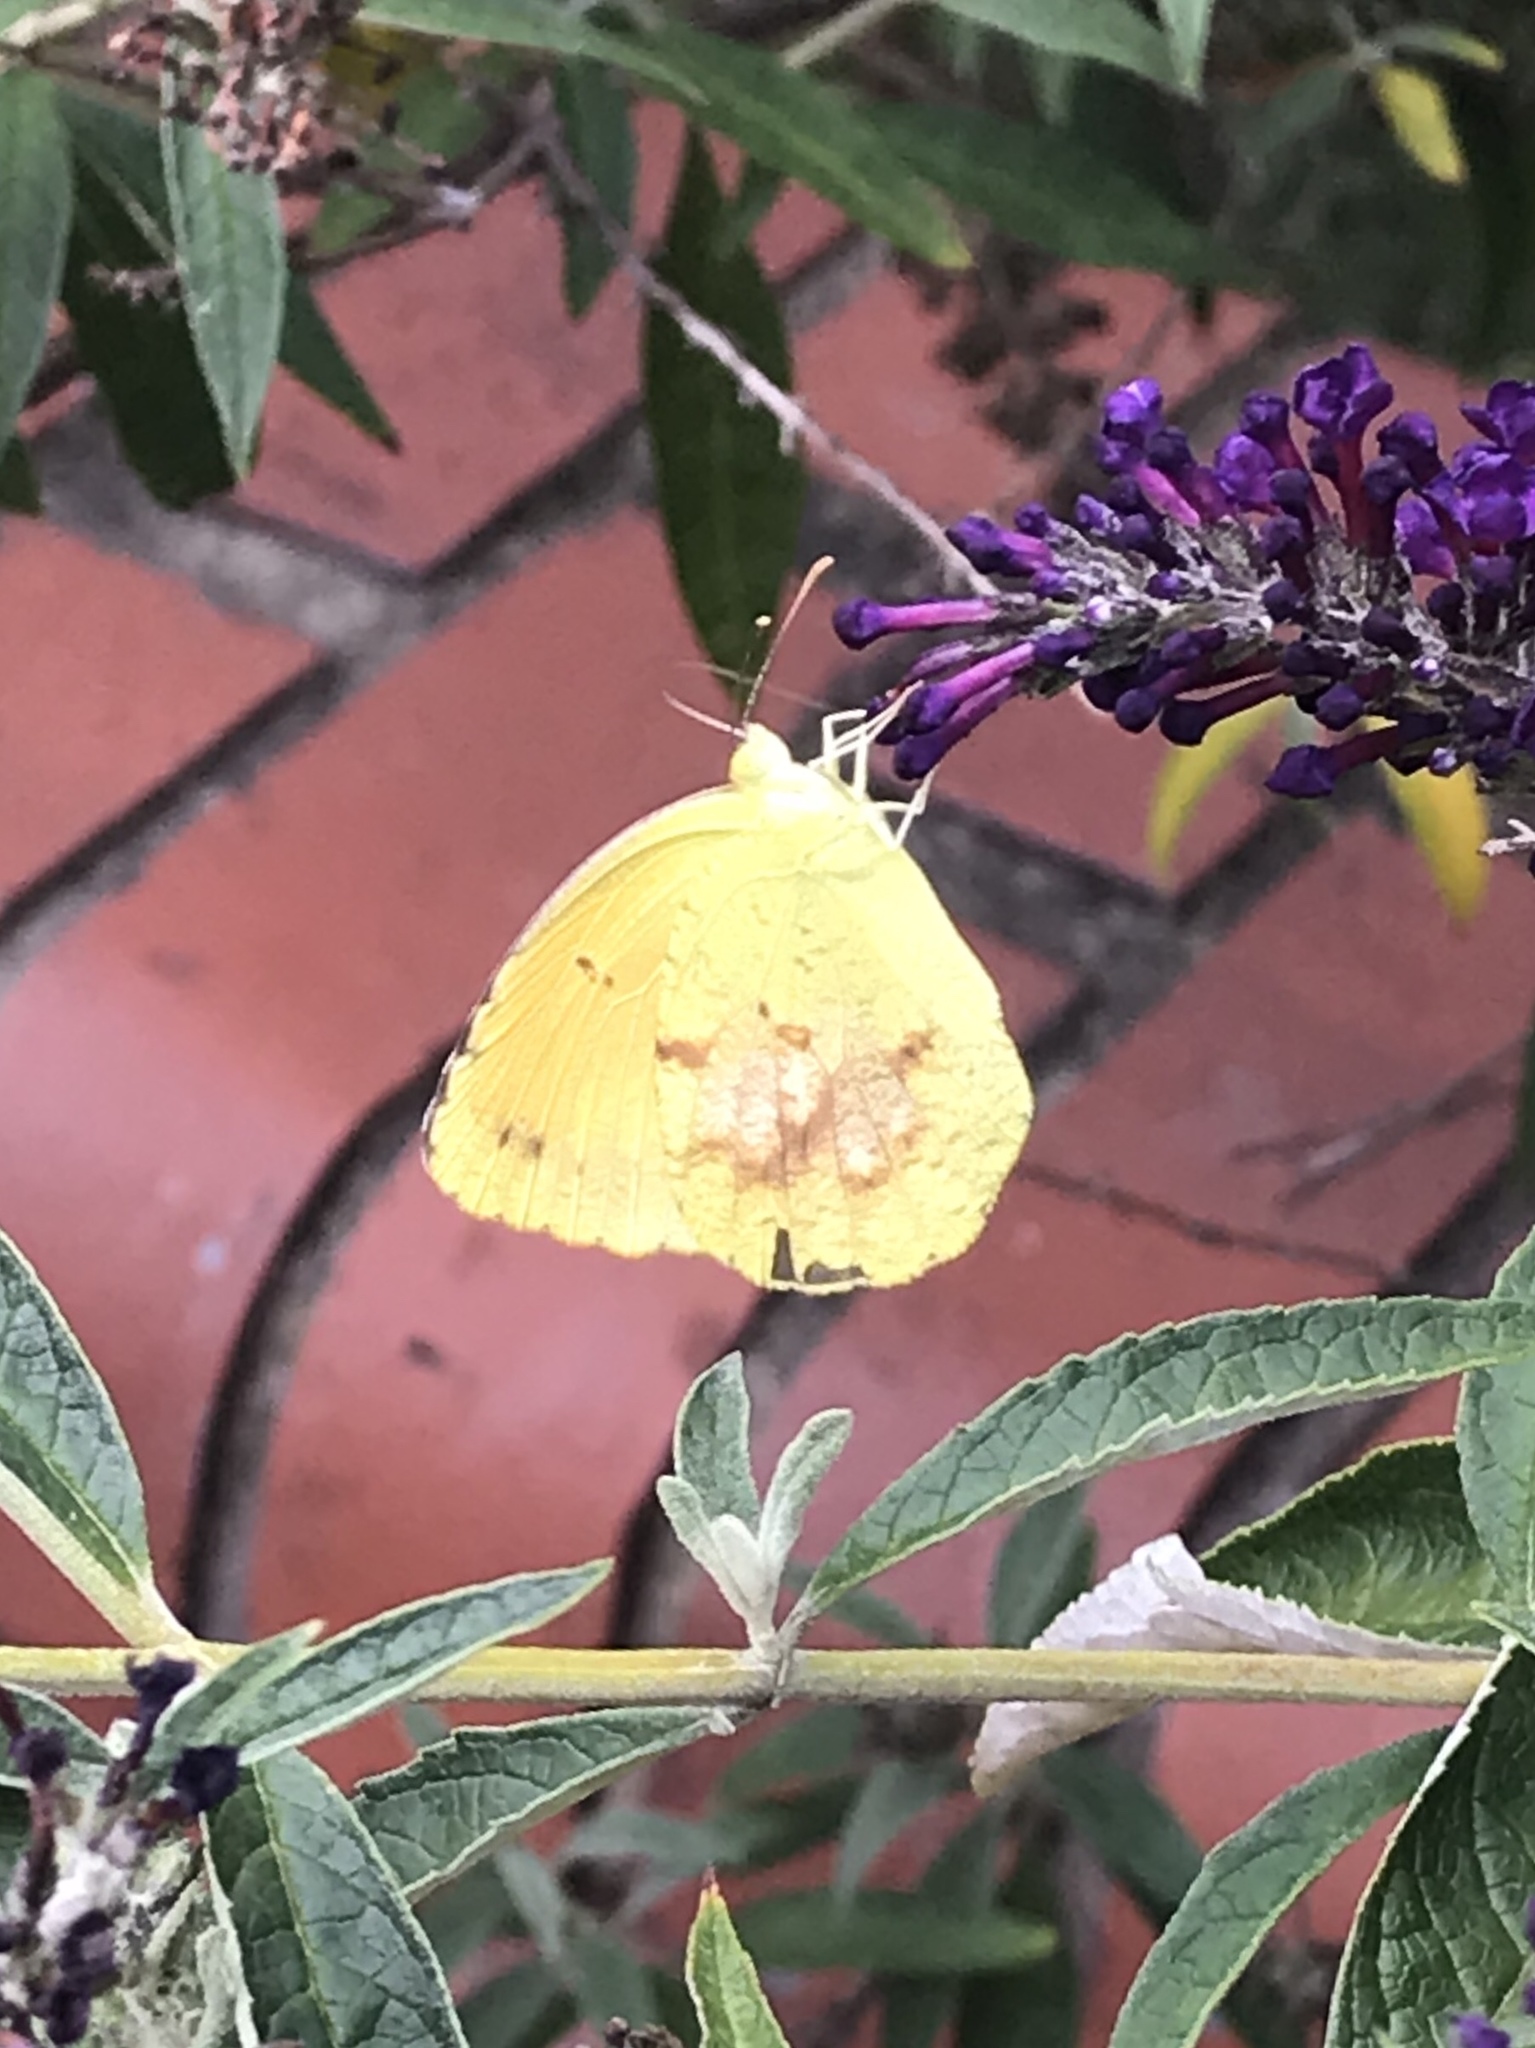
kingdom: Animalia
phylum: Arthropoda
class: Insecta
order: Lepidoptera
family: Pieridae
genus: Abaeis
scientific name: Abaeis nicippe
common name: Sleepy orange
